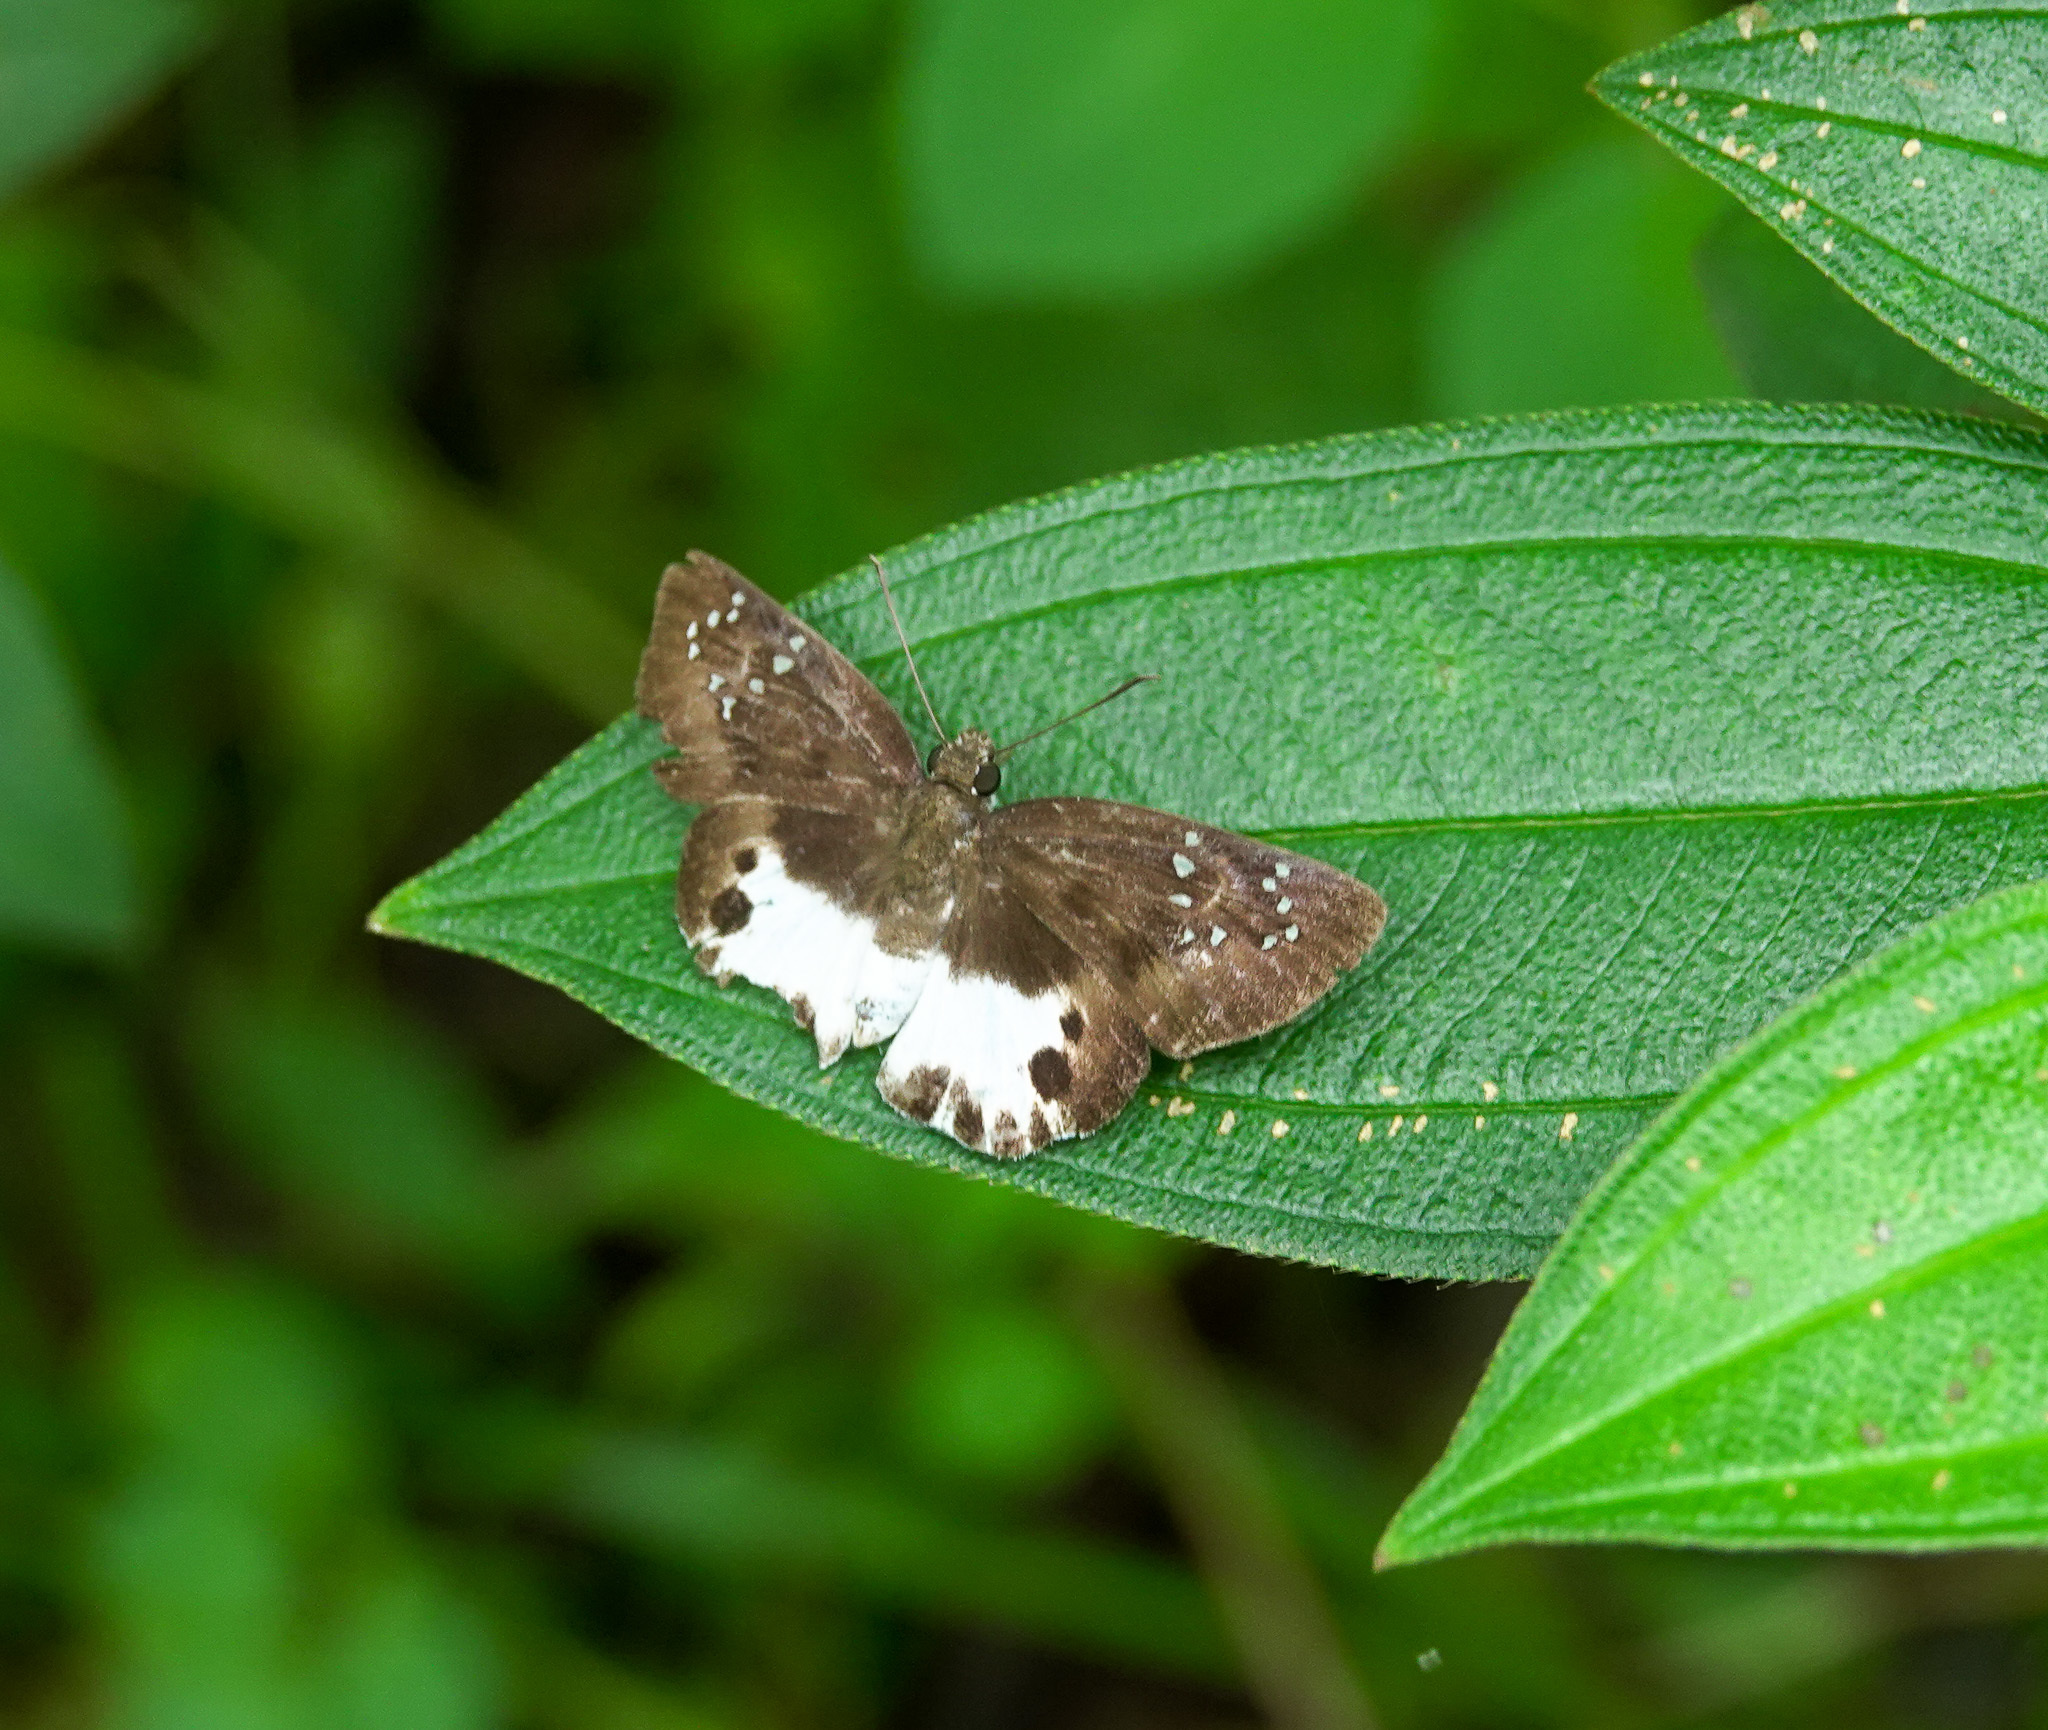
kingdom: Animalia
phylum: Arthropoda
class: Insecta
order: Lepidoptera
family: Hesperiidae
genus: Tagiades
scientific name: Tagiades litigiosa
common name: Water snow flat
